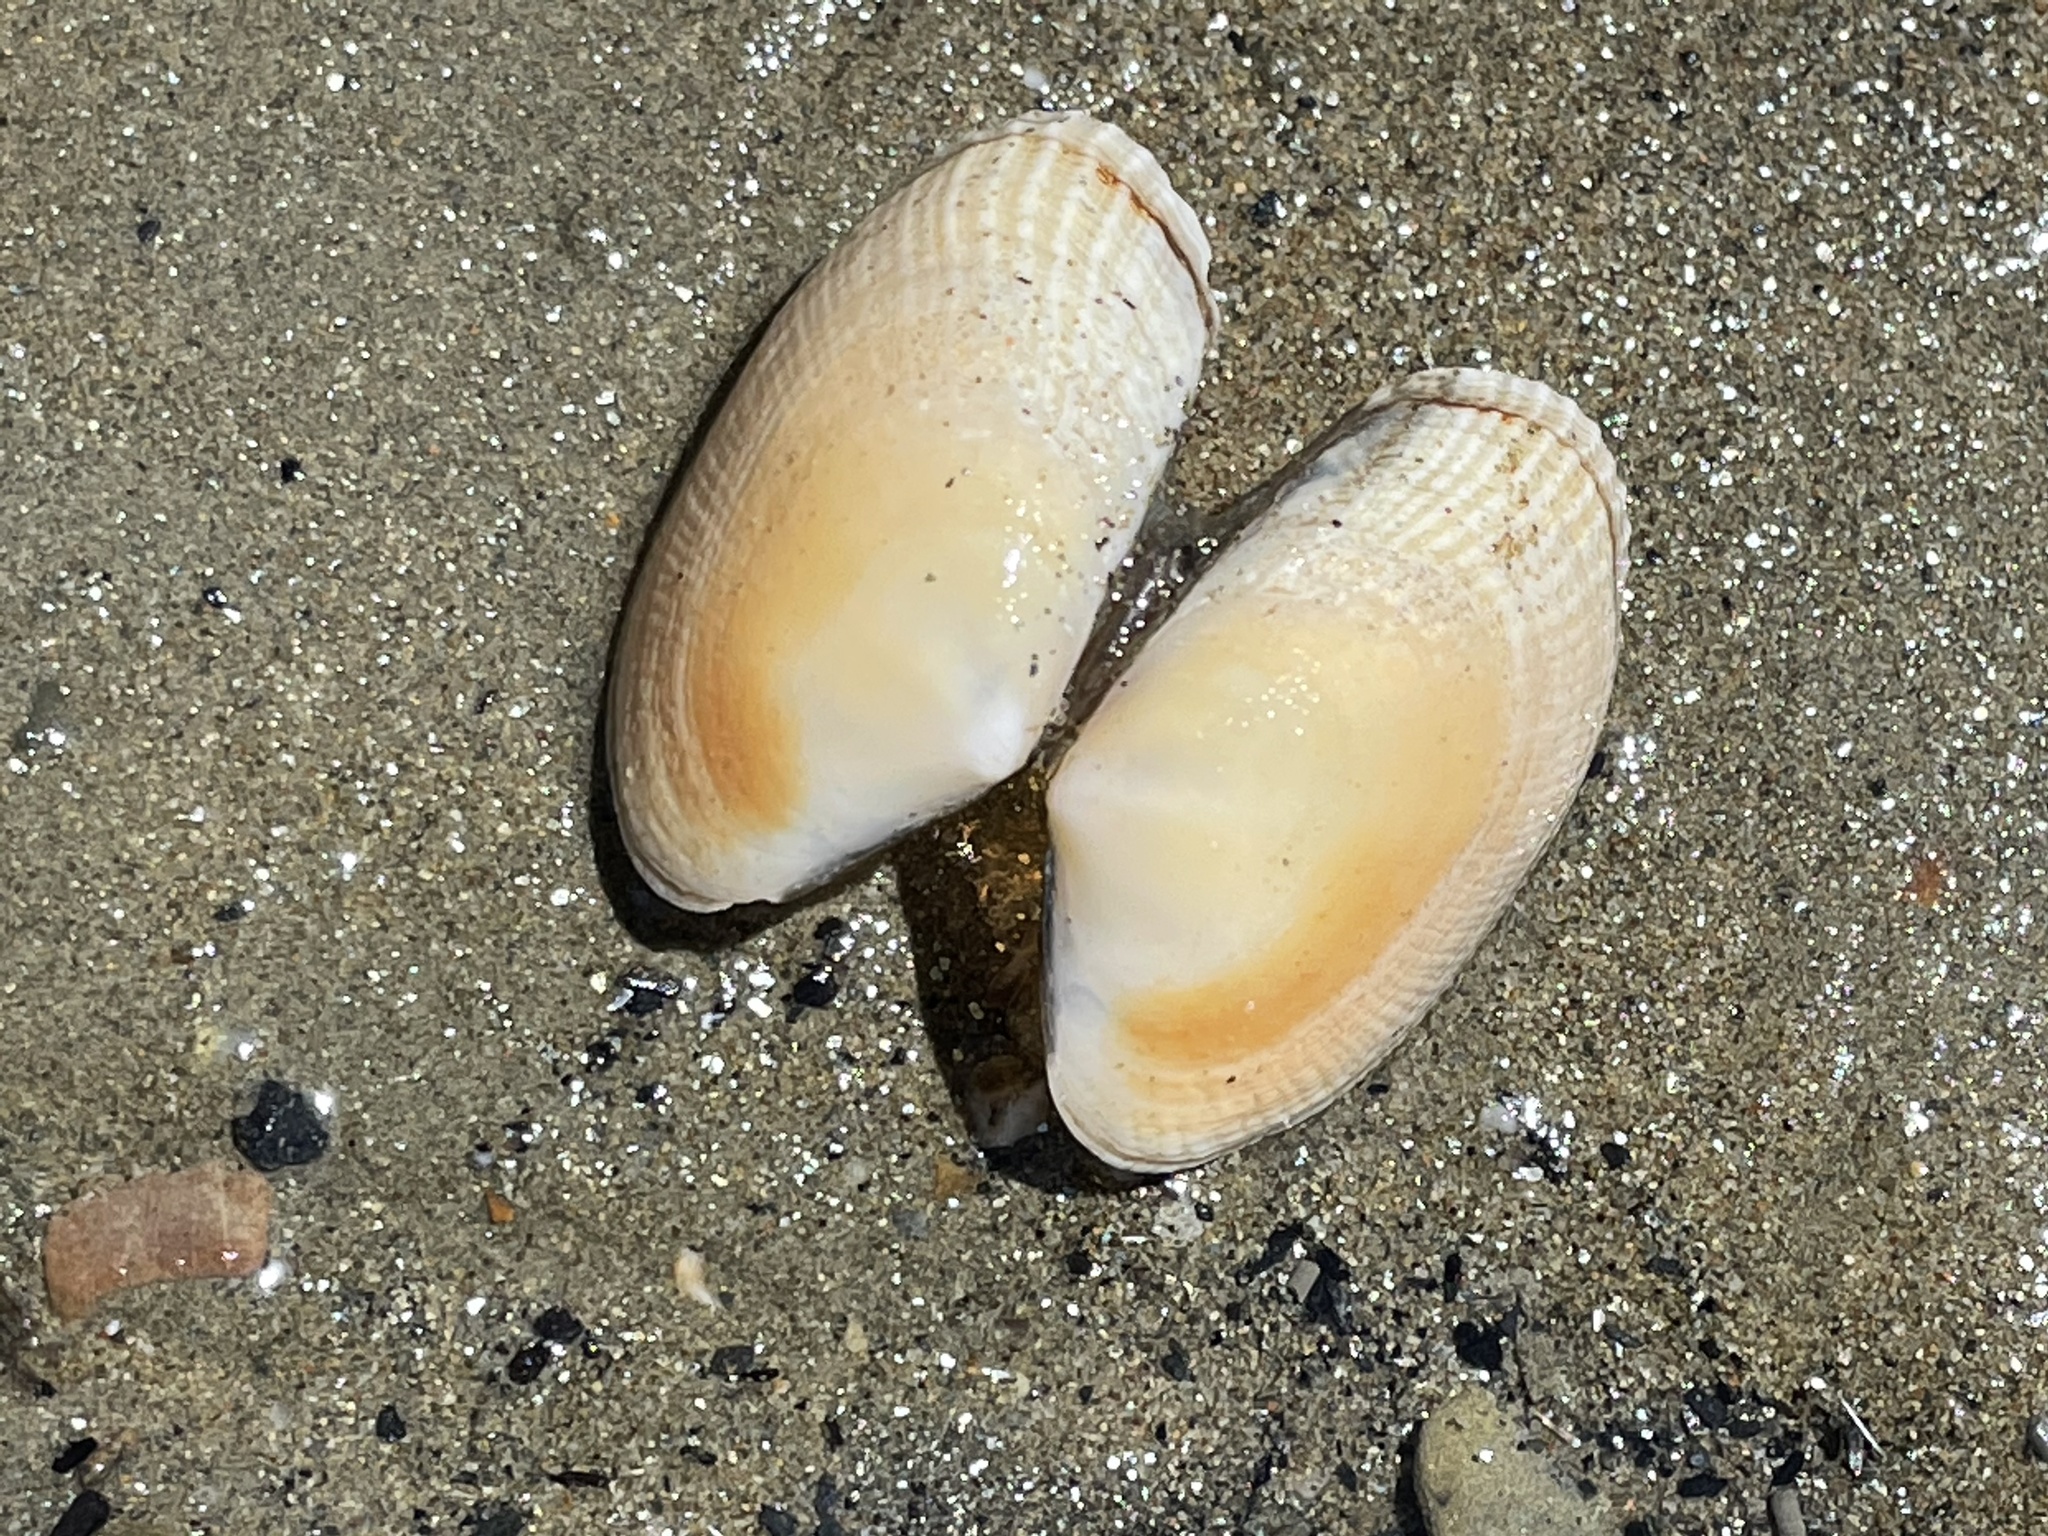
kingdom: Animalia
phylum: Mollusca
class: Bivalvia
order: Venerida
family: Veneridae
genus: Ruditapes
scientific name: Ruditapes philippinarum
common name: Manila clam
